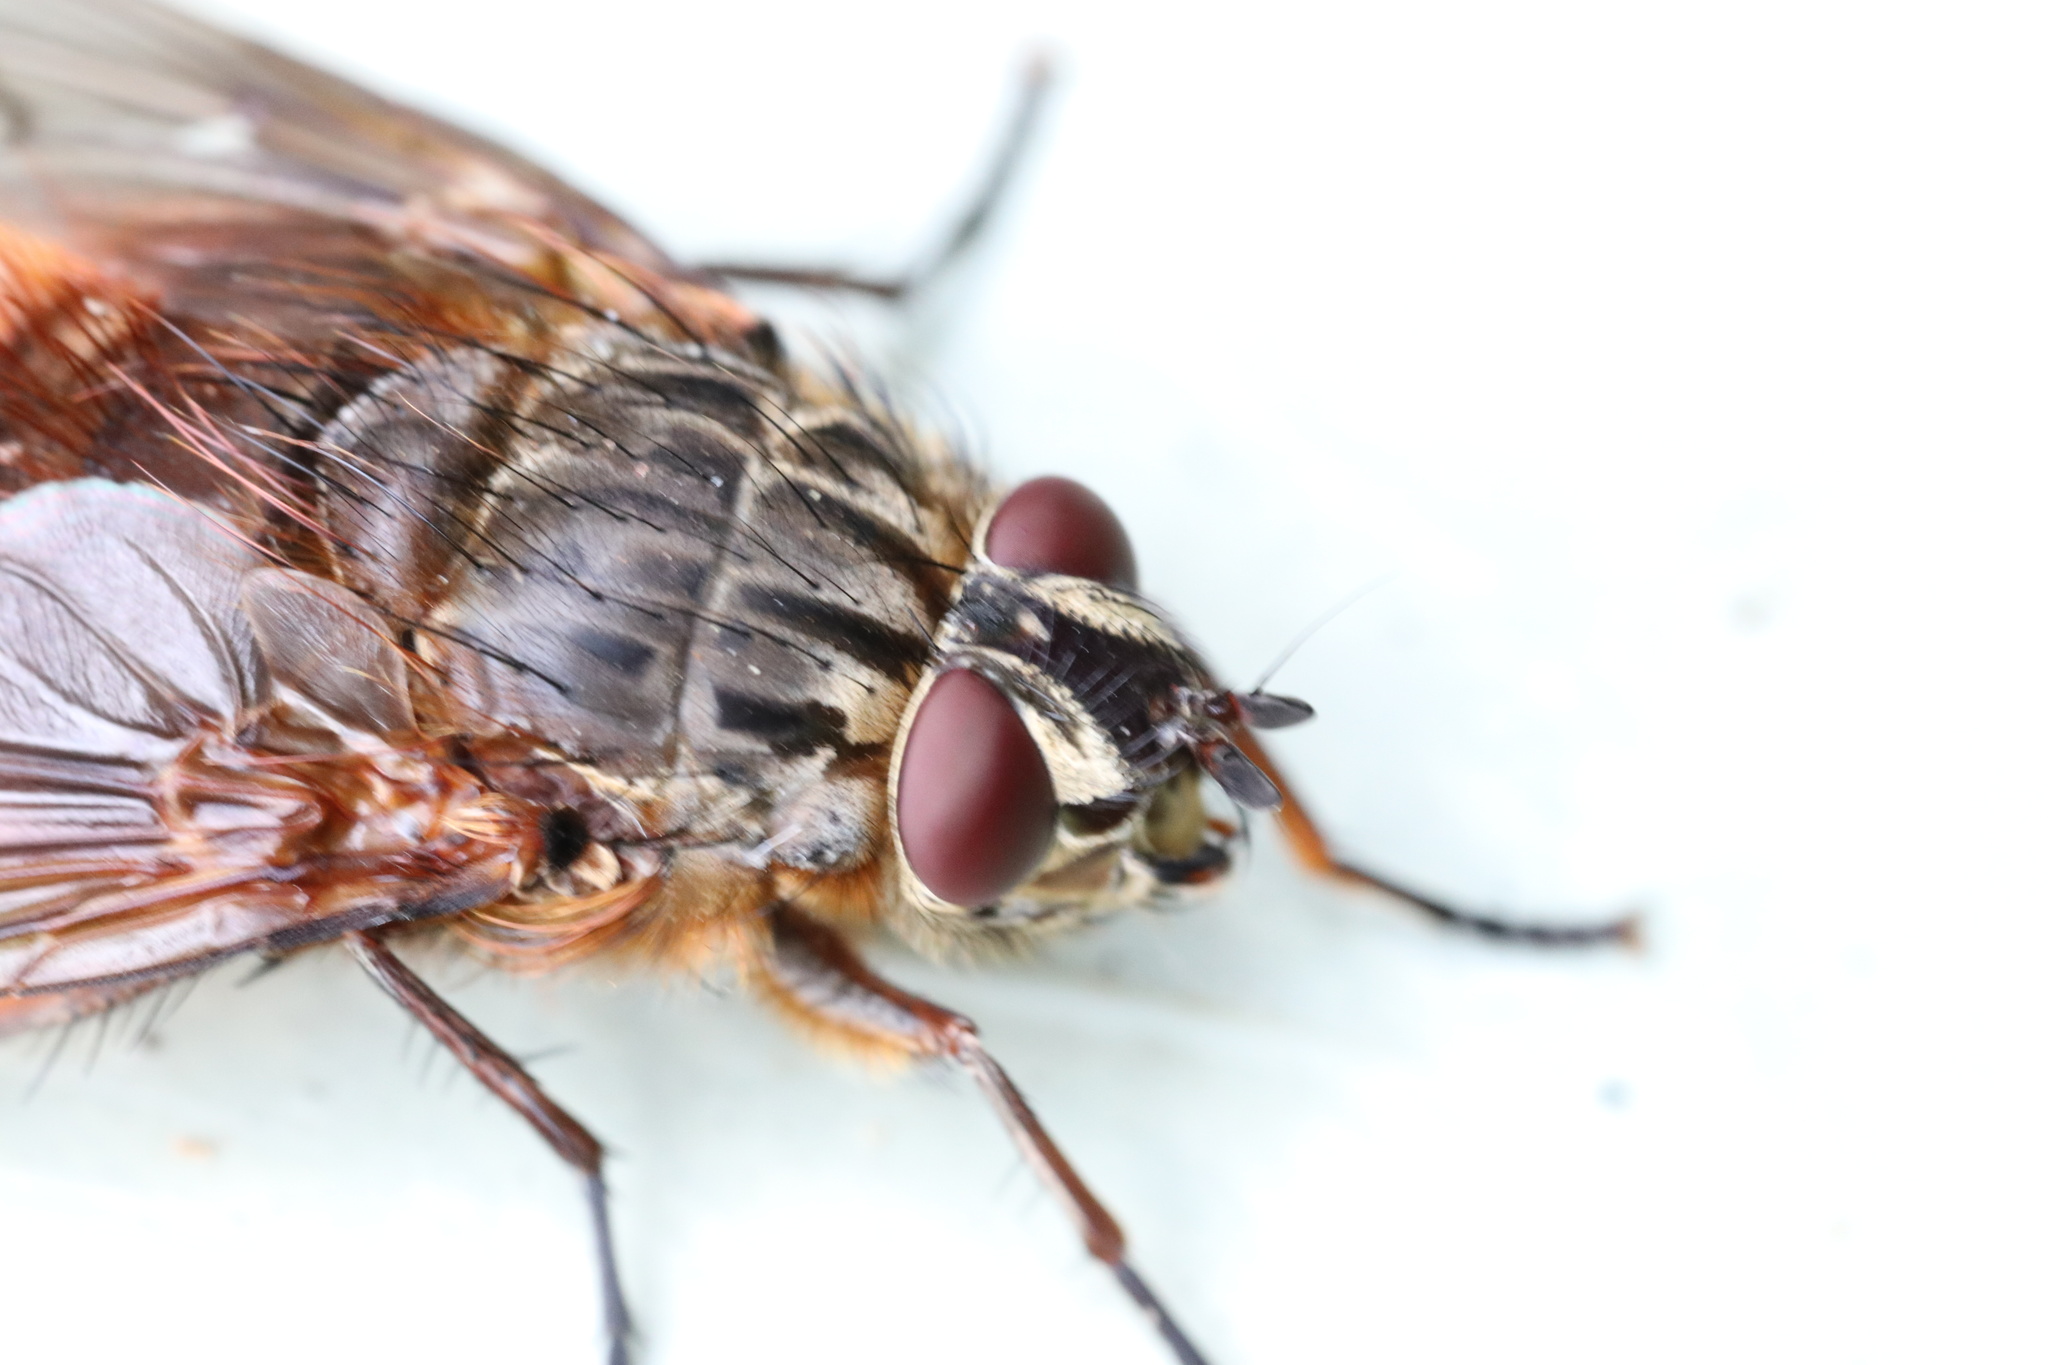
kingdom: Animalia
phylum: Arthropoda
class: Insecta
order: Diptera
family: Tachinidae
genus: Pelycops
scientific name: Pelycops darwini
